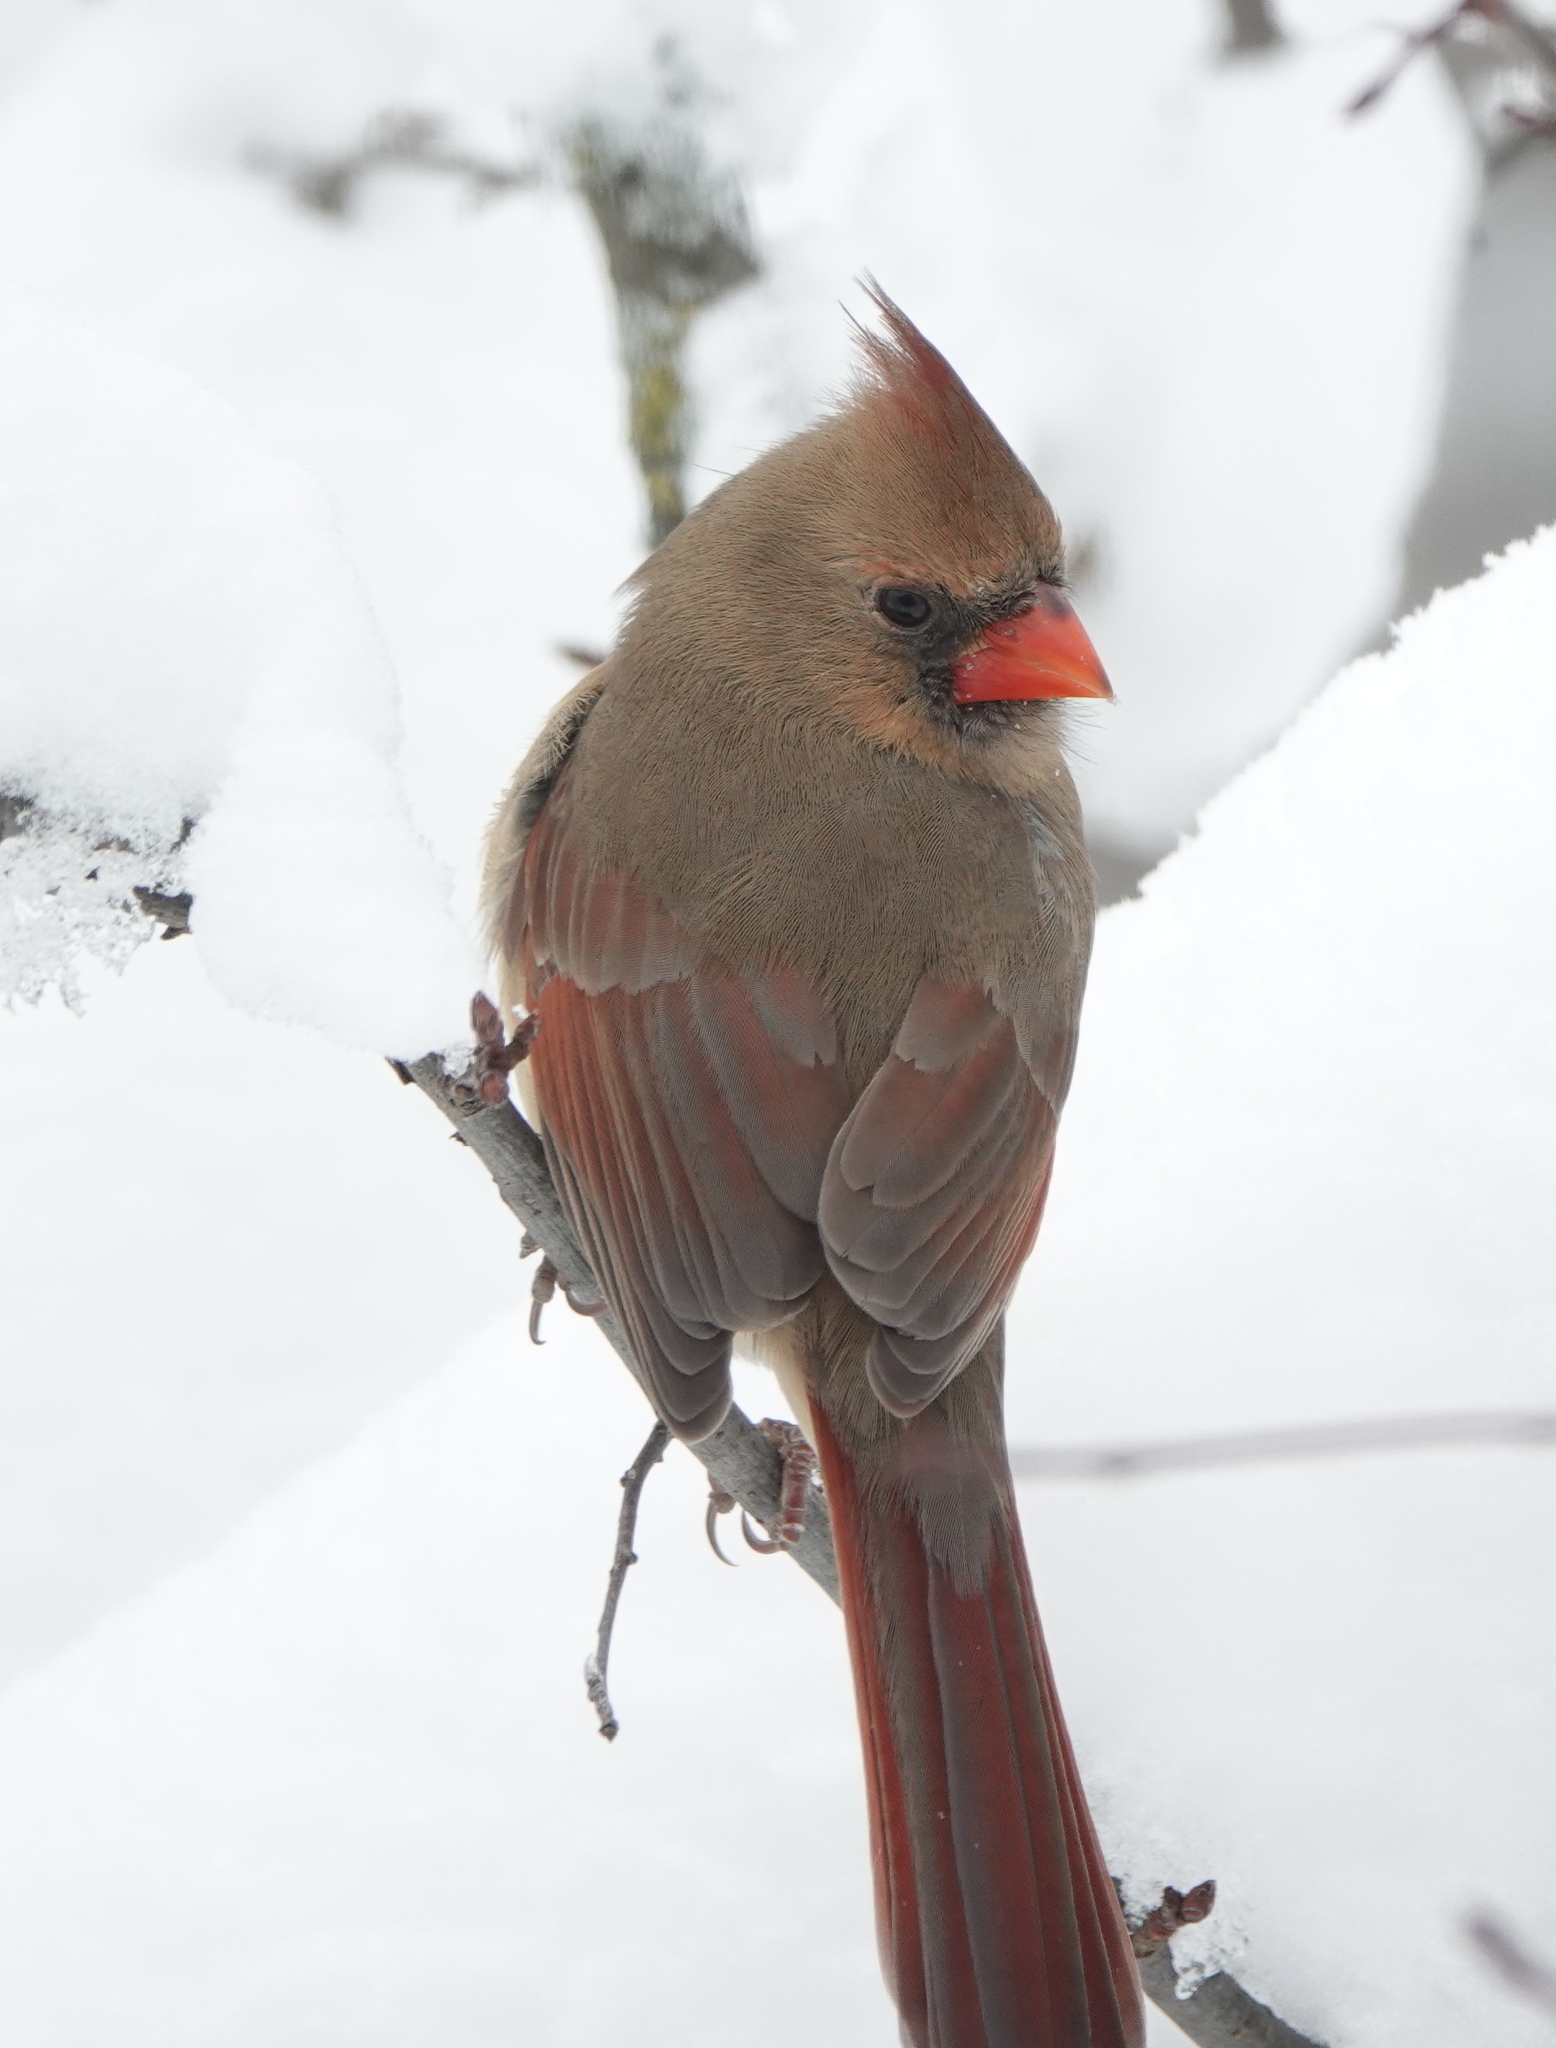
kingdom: Animalia
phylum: Chordata
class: Aves
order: Passeriformes
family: Cardinalidae
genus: Cardinalis
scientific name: Cardinalis cardinalis
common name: Northern cardinal
